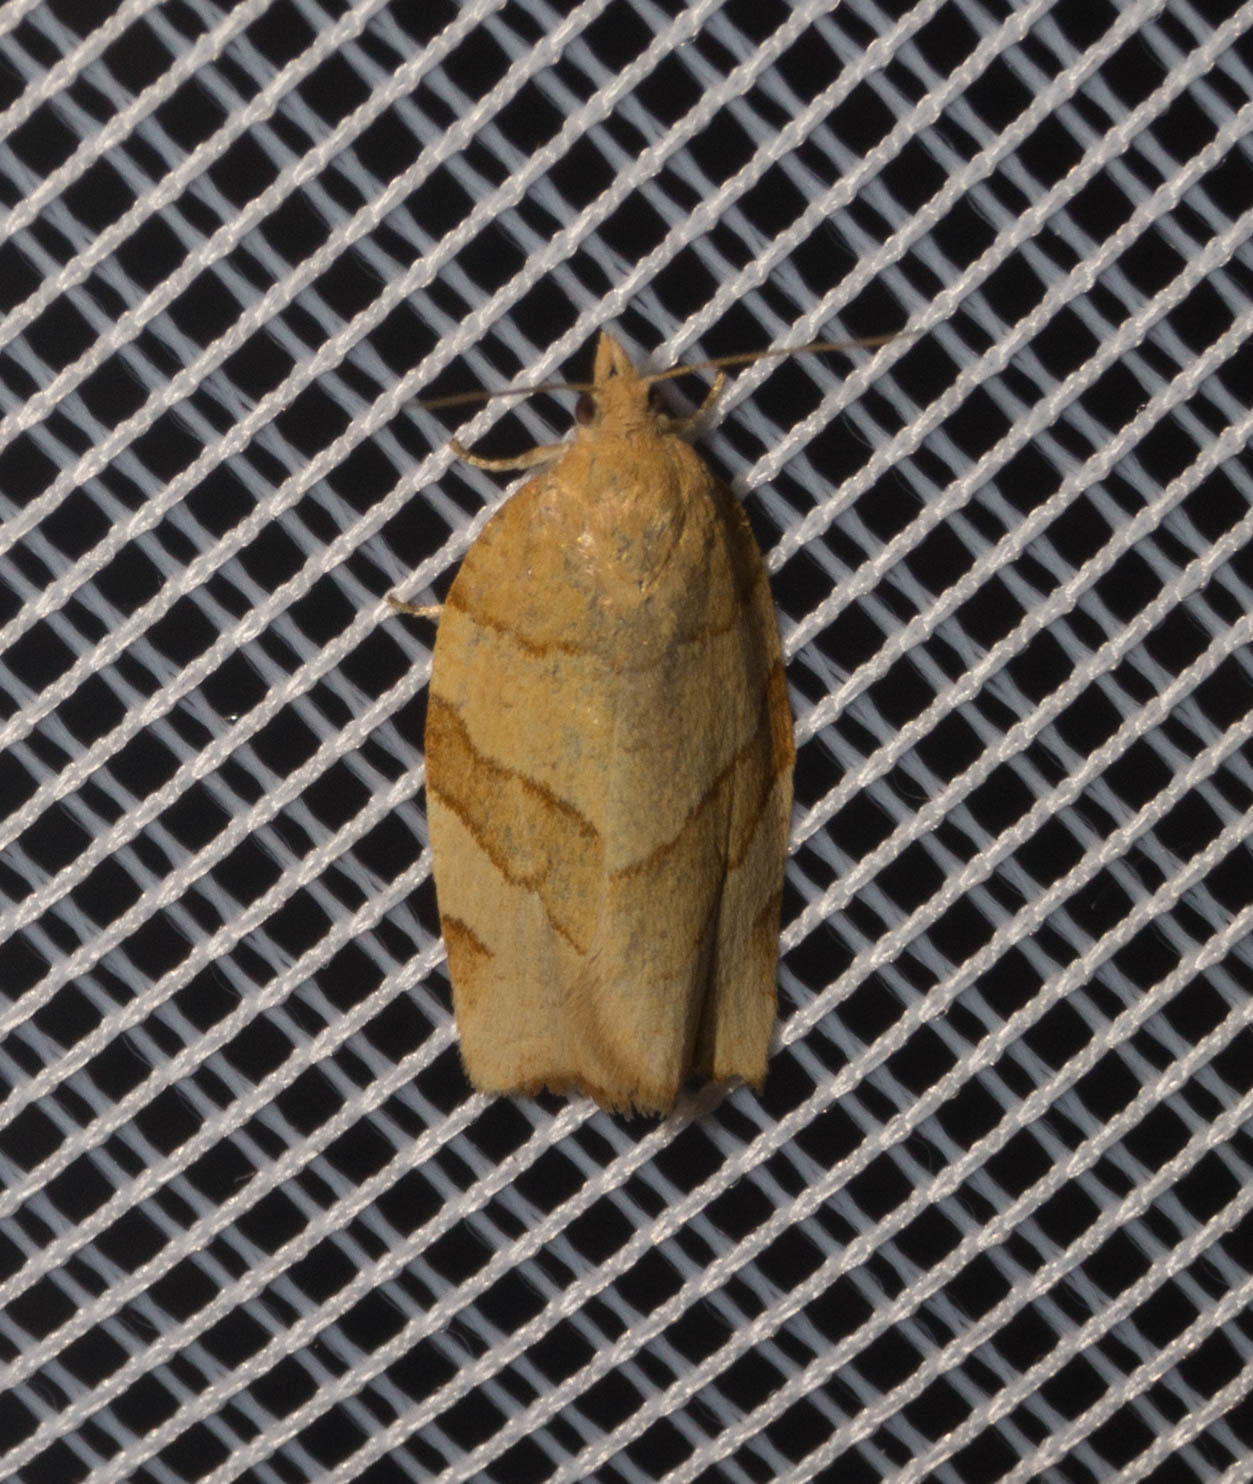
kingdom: Animalia
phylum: Arthropoda
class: Insecta
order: Lepidoptera
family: Tortricidae
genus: Pandemis
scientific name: Pandemis cerasana
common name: Barred fruit-tree tortrix
